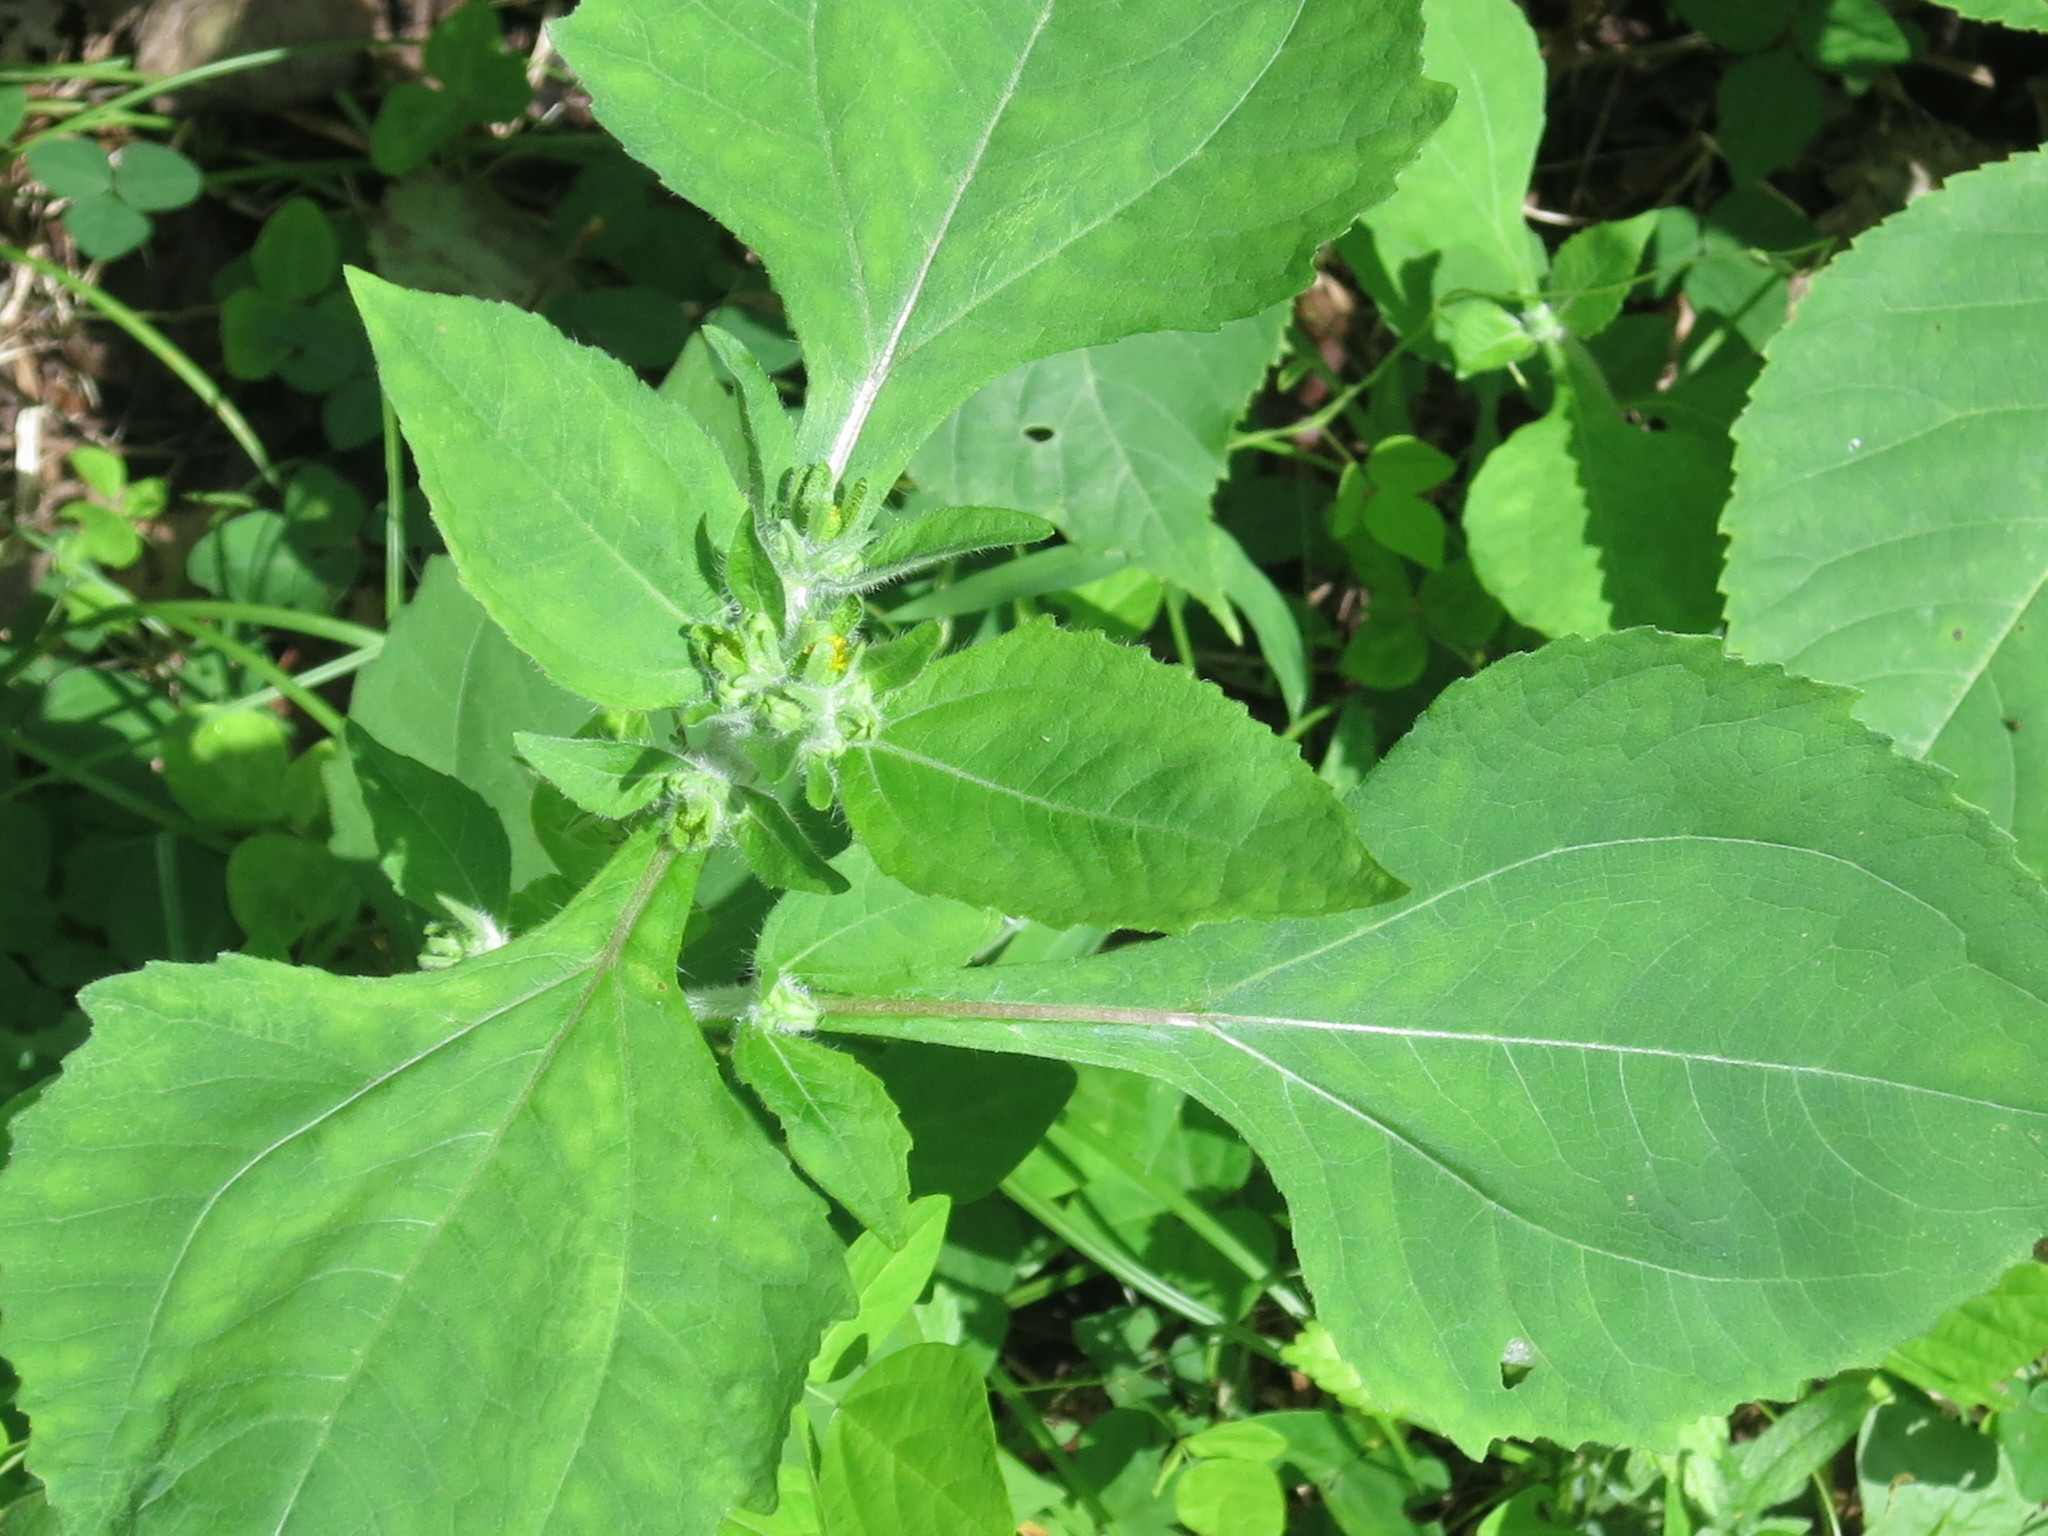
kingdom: Plantae
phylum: Tracheophyta
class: Magnoliopsida
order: Asterales
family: Asteraceae
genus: Sigesbeckia
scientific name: Sigesbeckia pubescens
